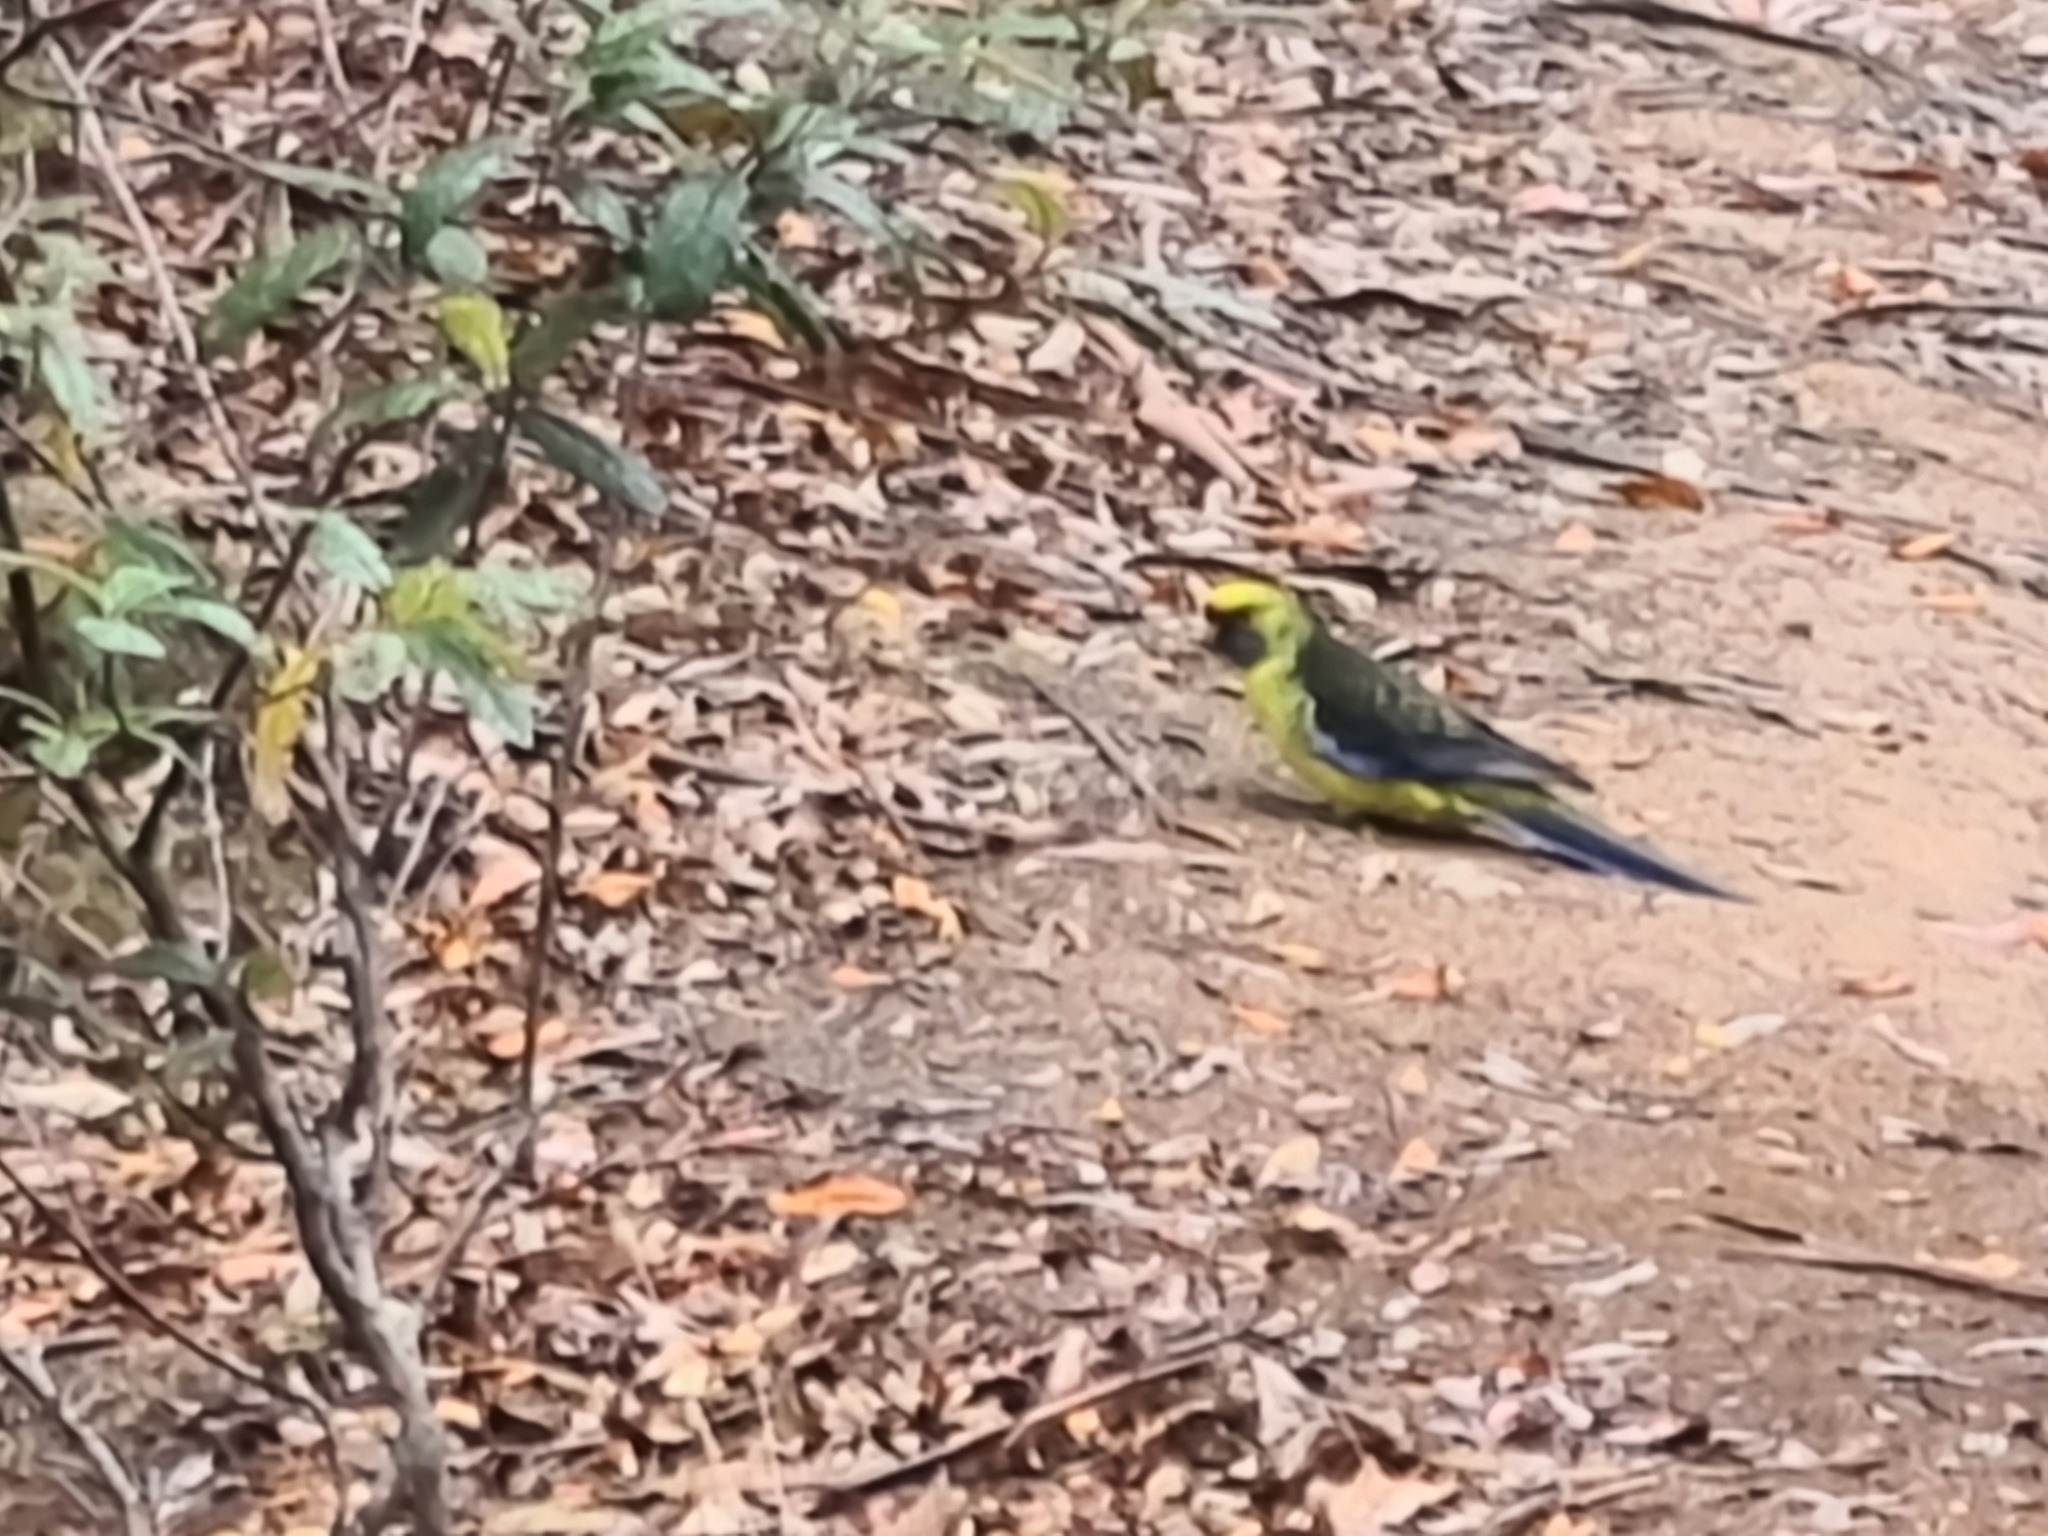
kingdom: Animalia
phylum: Chordata
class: Aves
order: Psittaciformes
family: Psittacidae
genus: Platycercus
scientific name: Platycercus caledonicus
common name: Green rosella
